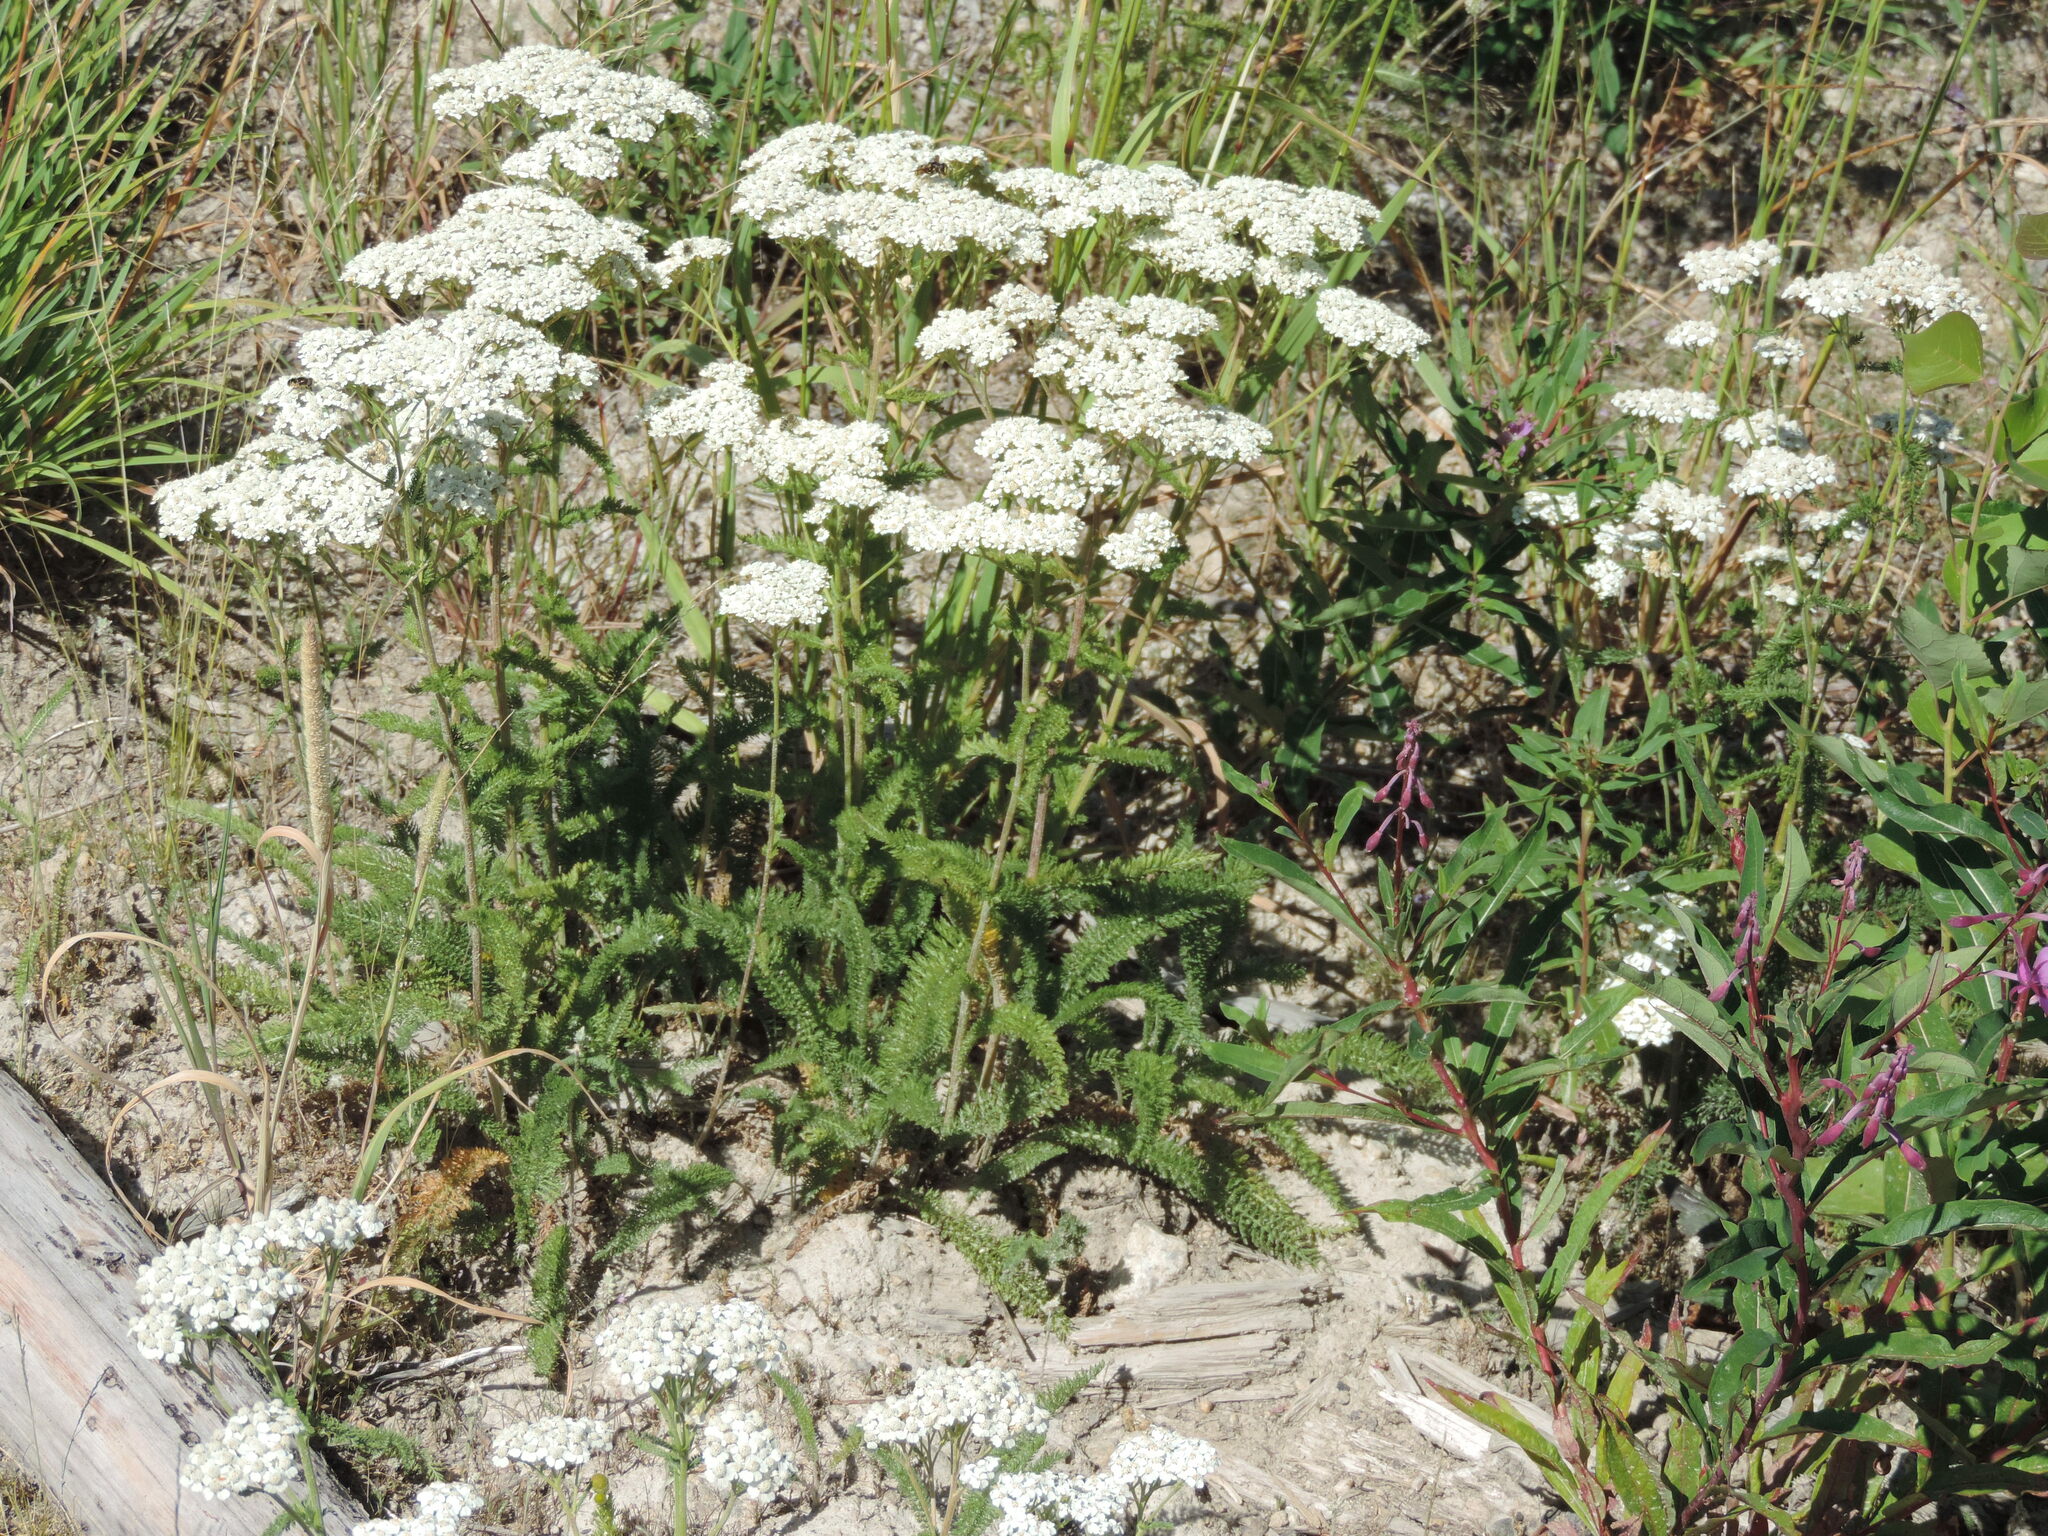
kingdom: Plantae
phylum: Tracheophyta
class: Magnoliopsida
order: Asterales
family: Asteraceae
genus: Achillea
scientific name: Achillea millefolium
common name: Yarrow
